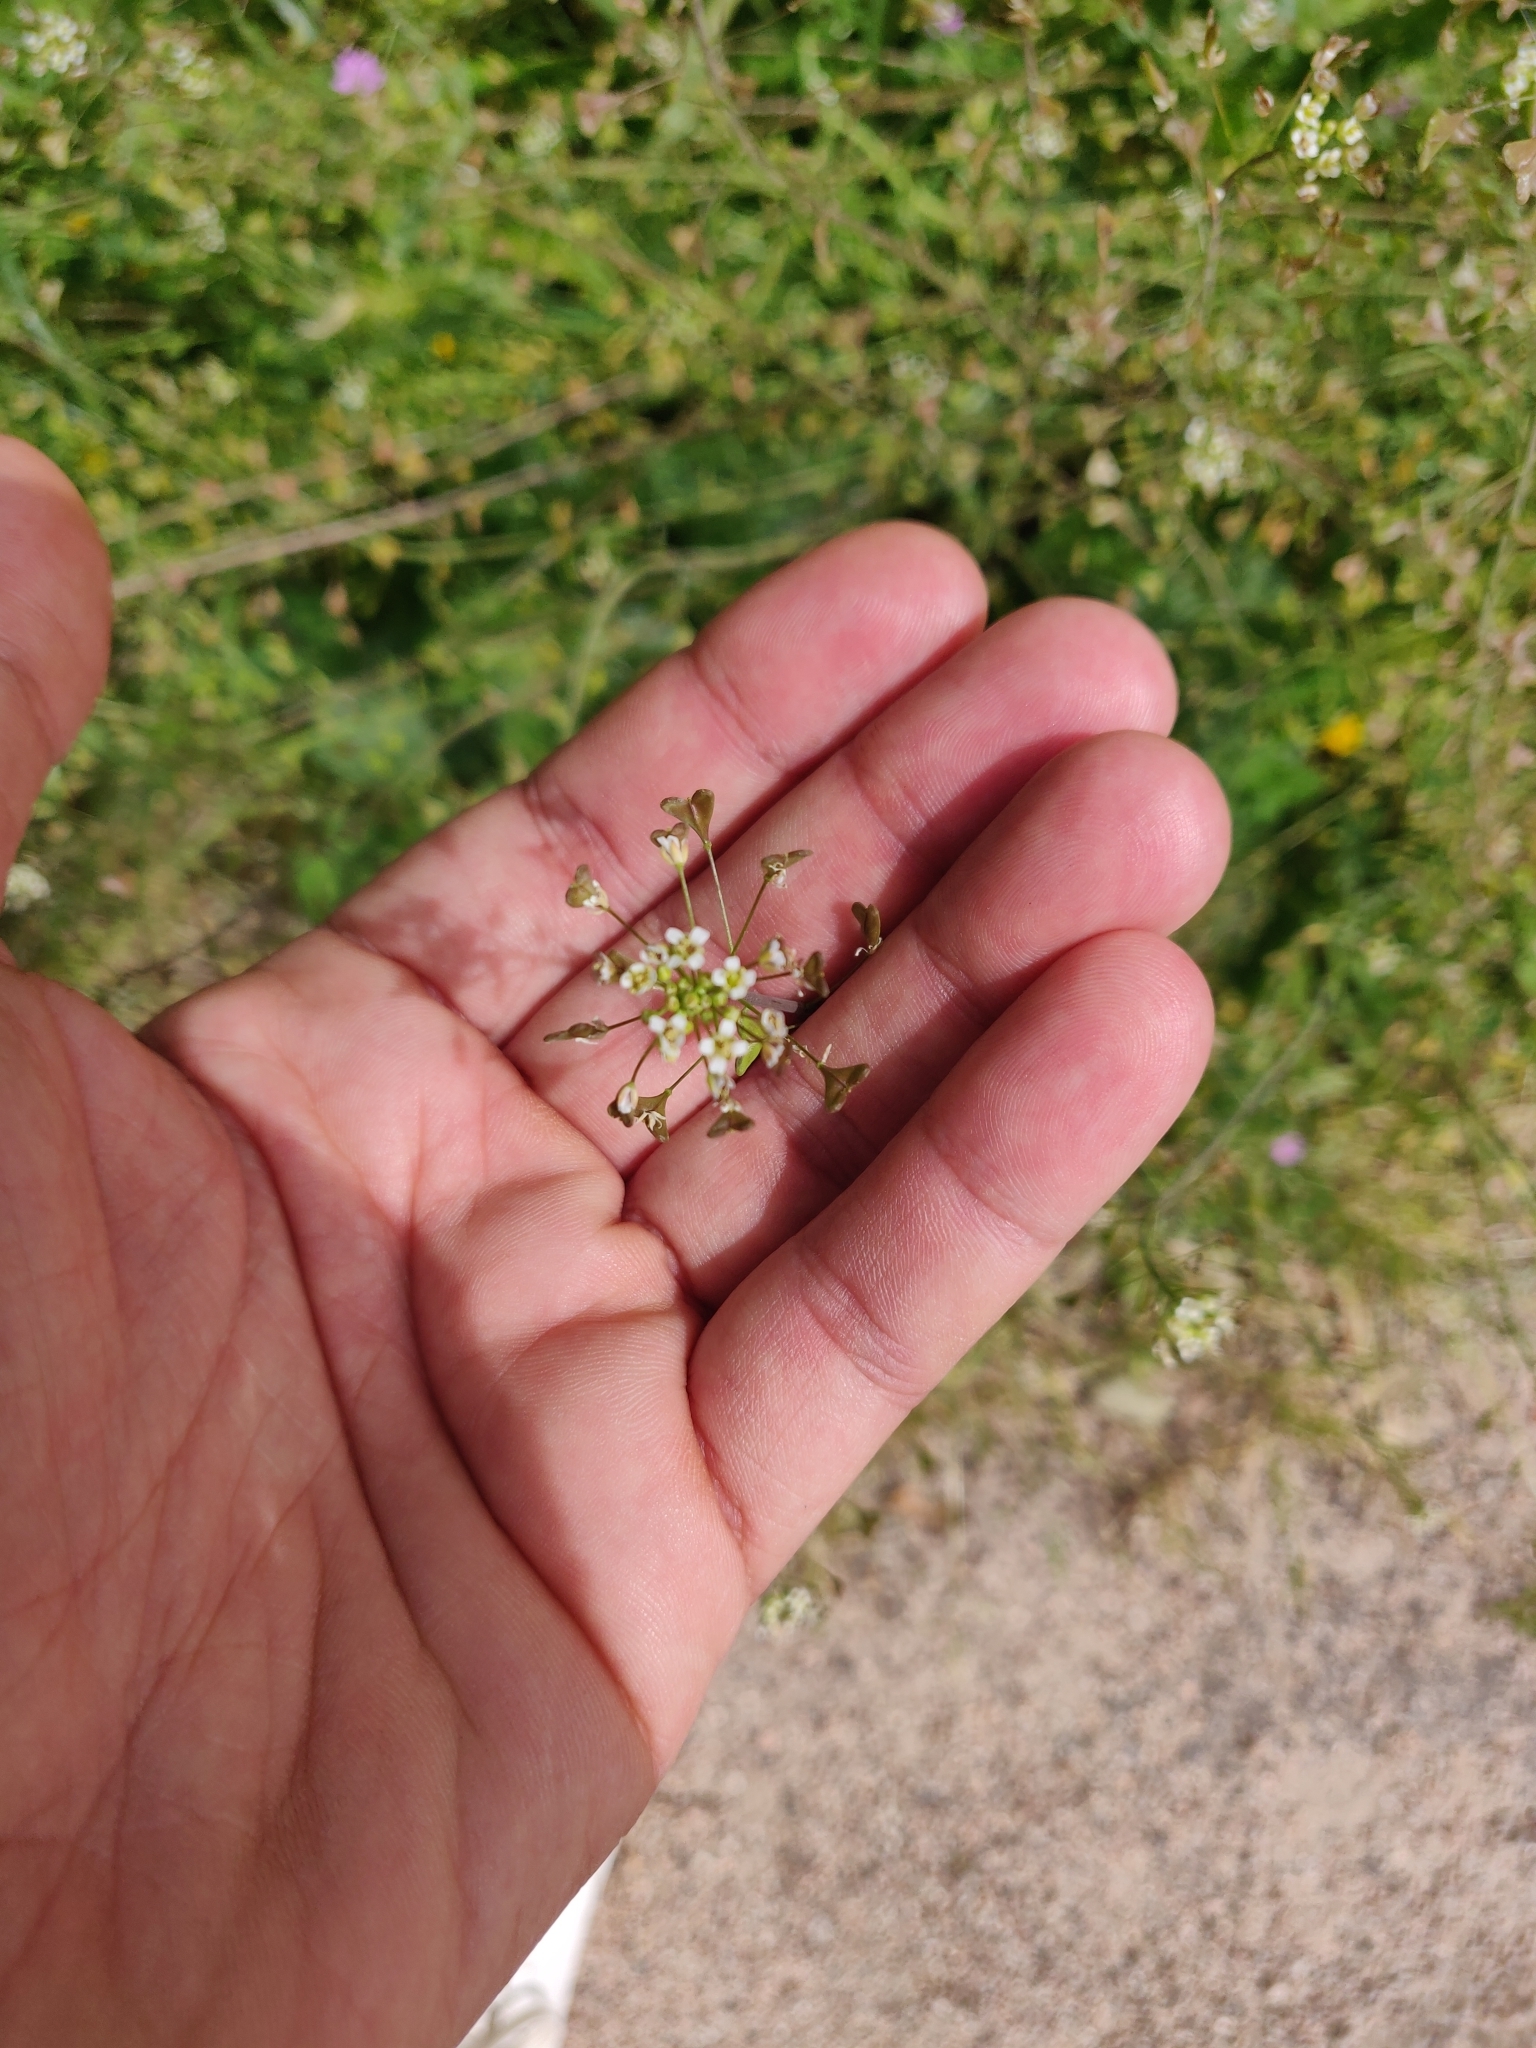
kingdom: Plantae
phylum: Tracheophyta
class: Magnoliopsida
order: Brassicales
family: Brassicaceae
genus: Capsella
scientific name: Capsella bursa-pastoris
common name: Shepherd's purse
